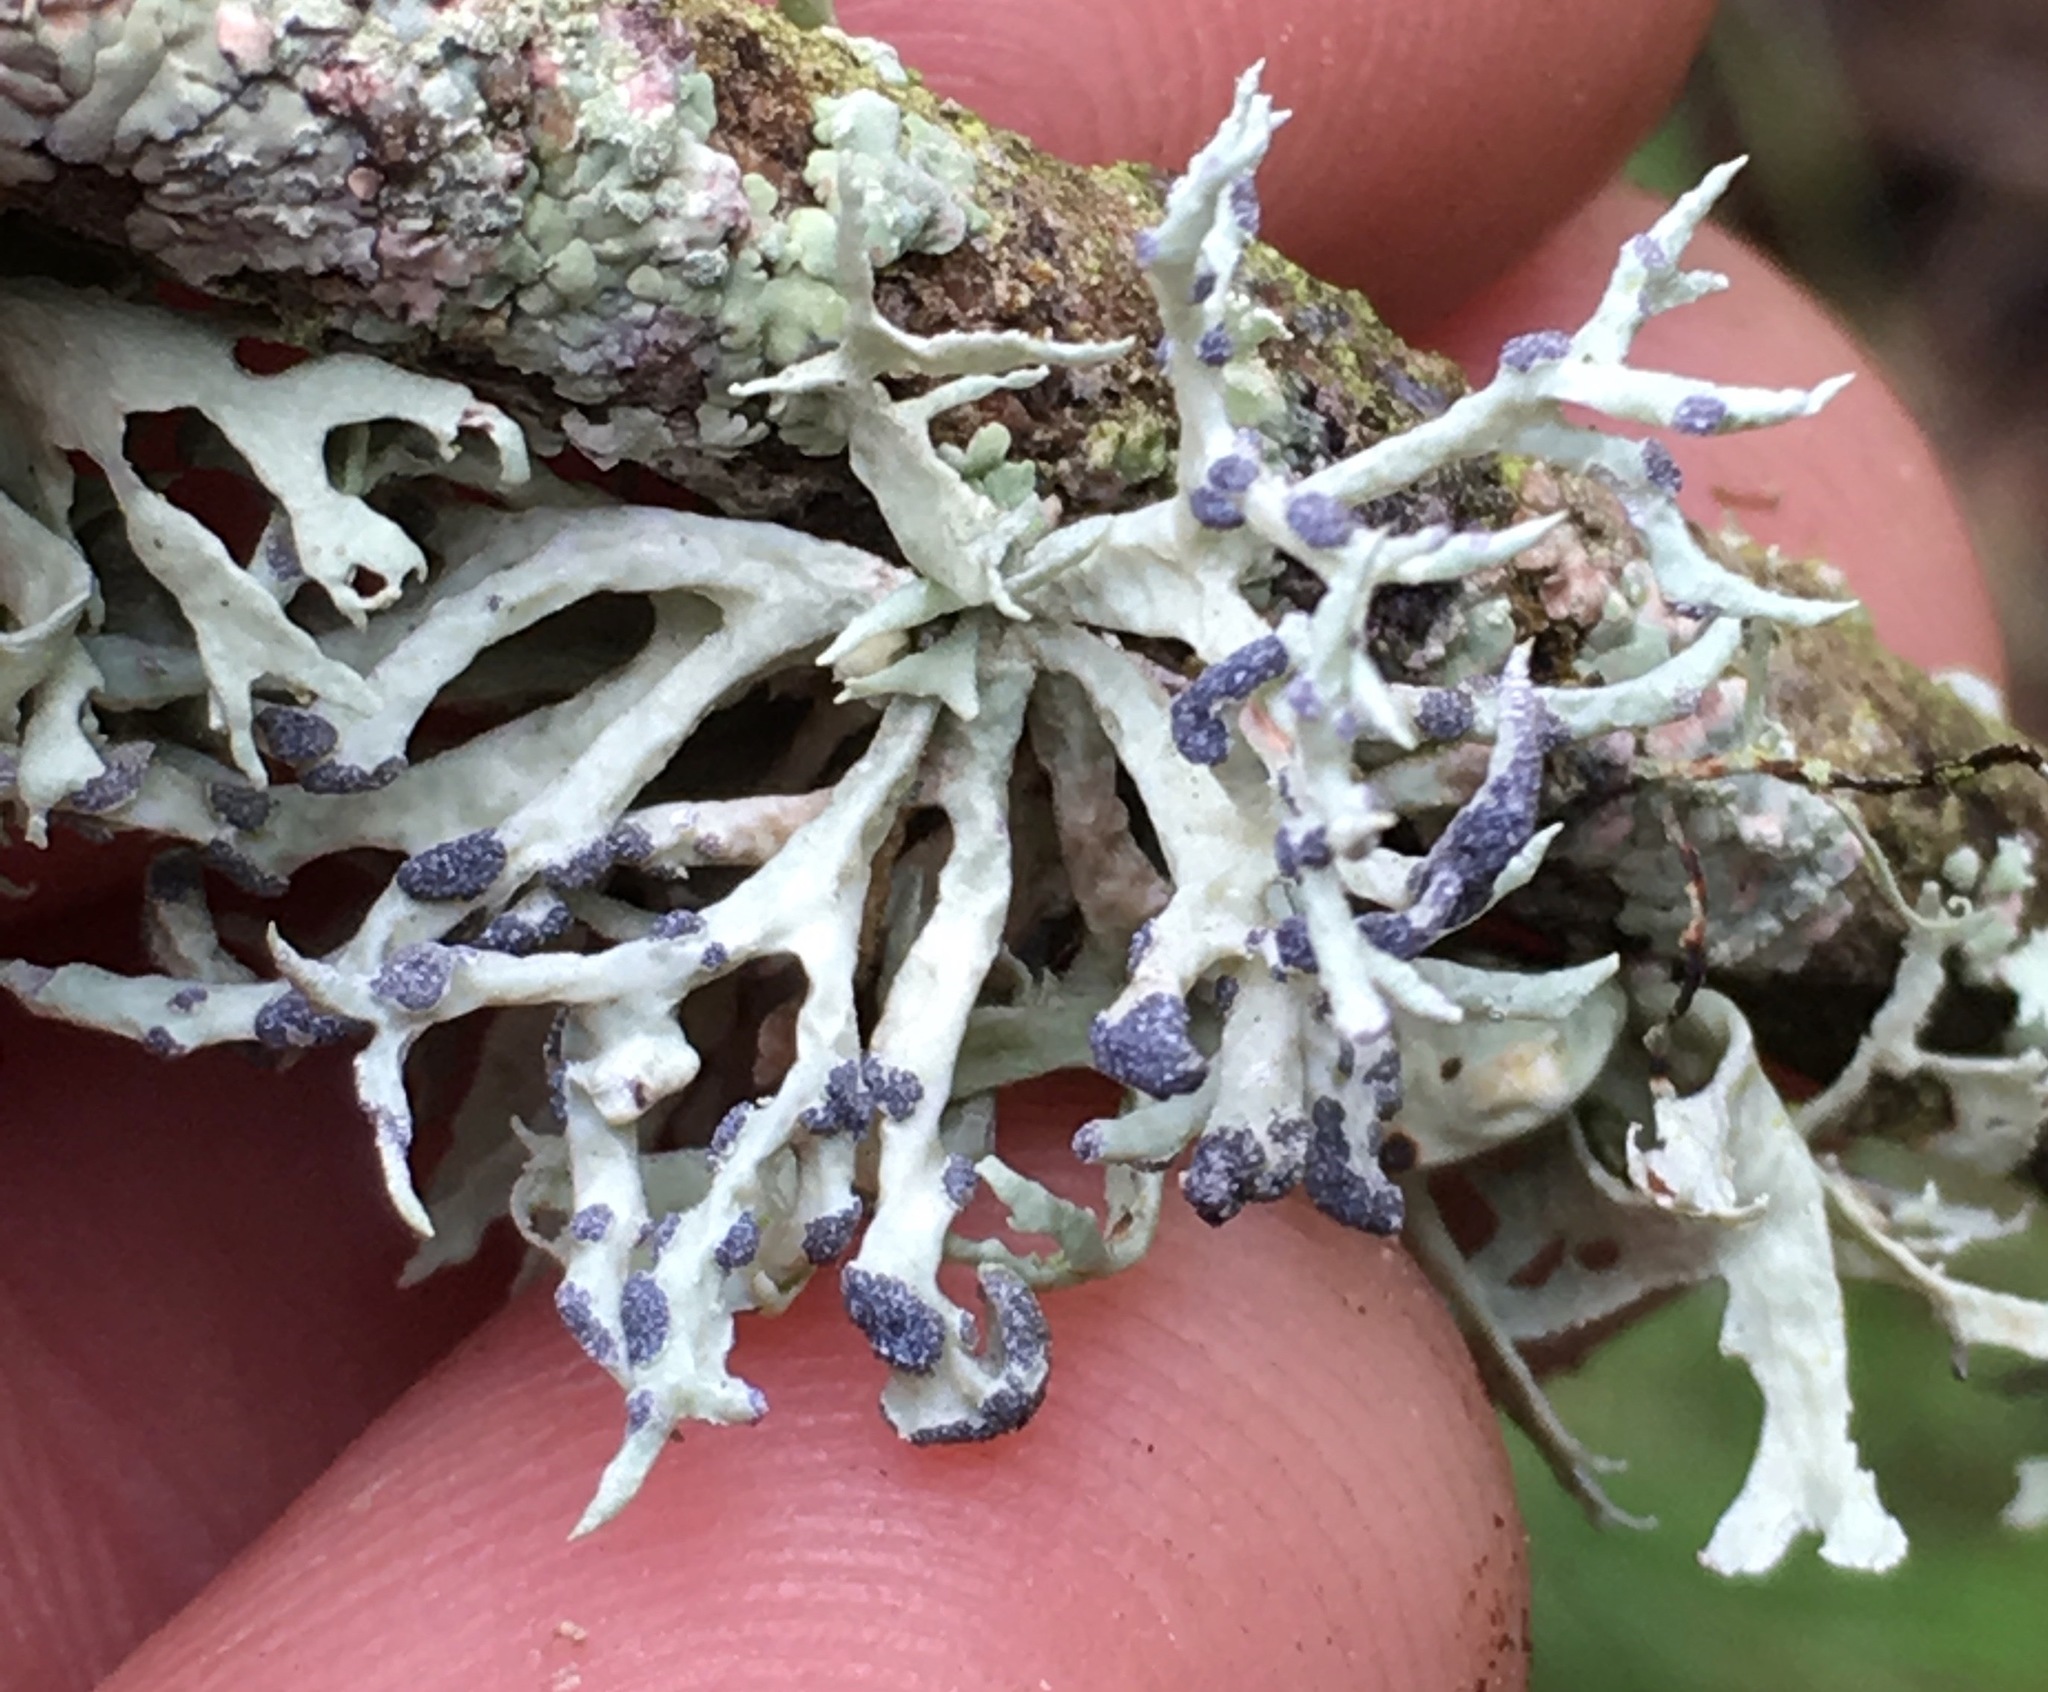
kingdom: Fungi
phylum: Ascomycota
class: Lecanoromycetes
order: Lecanorales
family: Ramalinaceae
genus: Niebla
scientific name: Niebla cephalota
